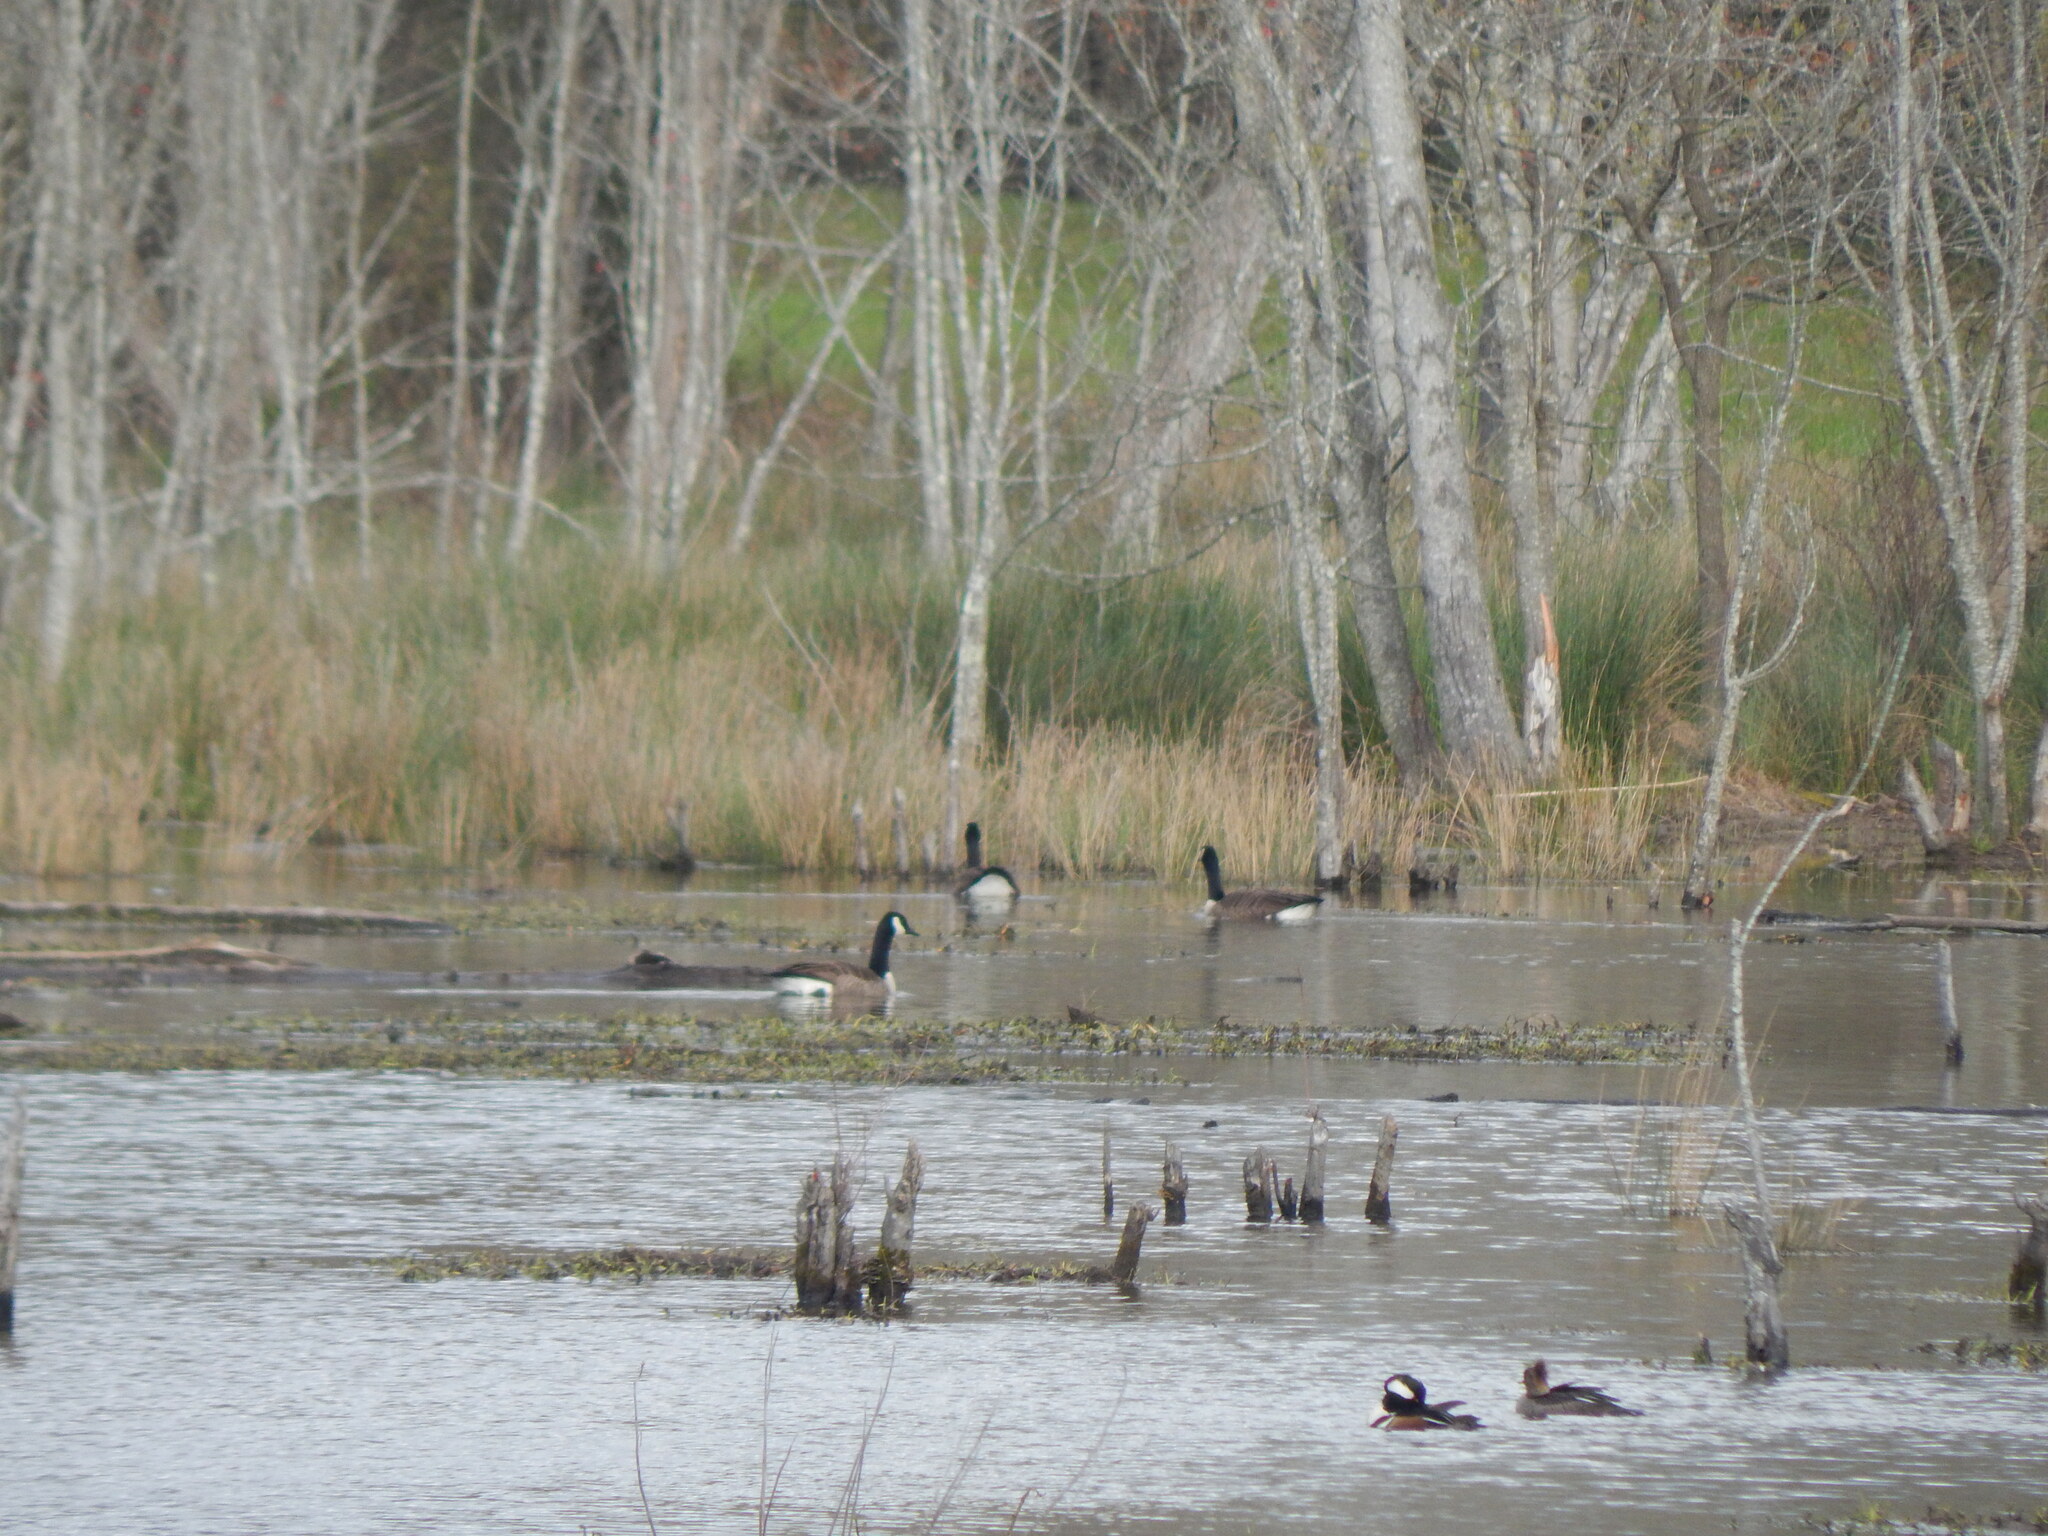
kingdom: Animalia
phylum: Chordata
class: Aves
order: Anseriformes
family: Anatidae
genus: Lophodytes
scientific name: Lophodytes cucullatus
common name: Hooded merganser
